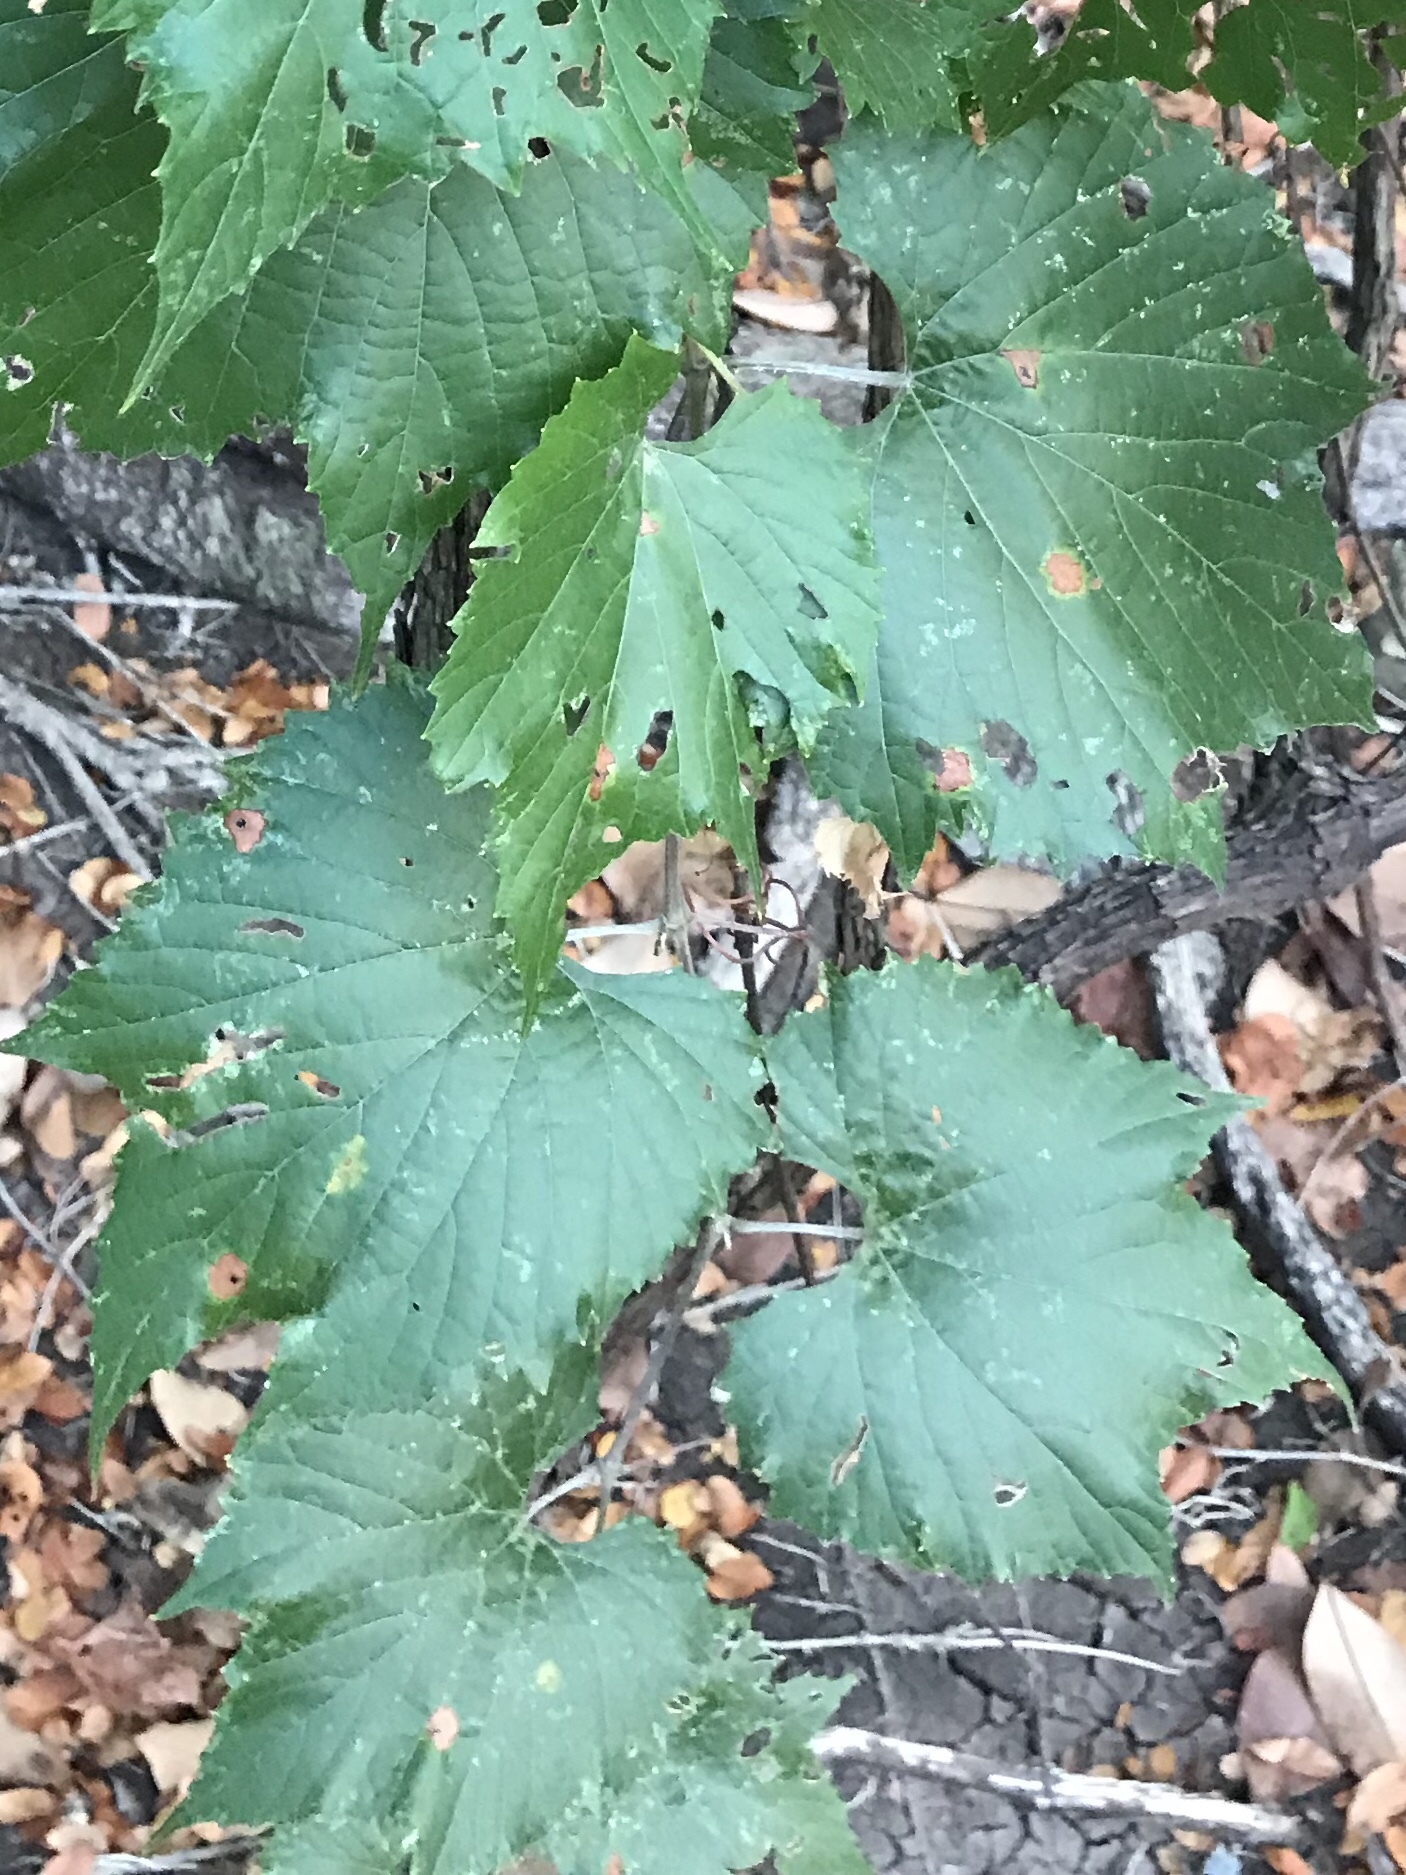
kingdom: Plantae
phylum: Tracheophyta
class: Magnoliopsida
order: Vitales
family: Vitaceae
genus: Vitis
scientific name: Vitis monticola
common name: Mountain grape
